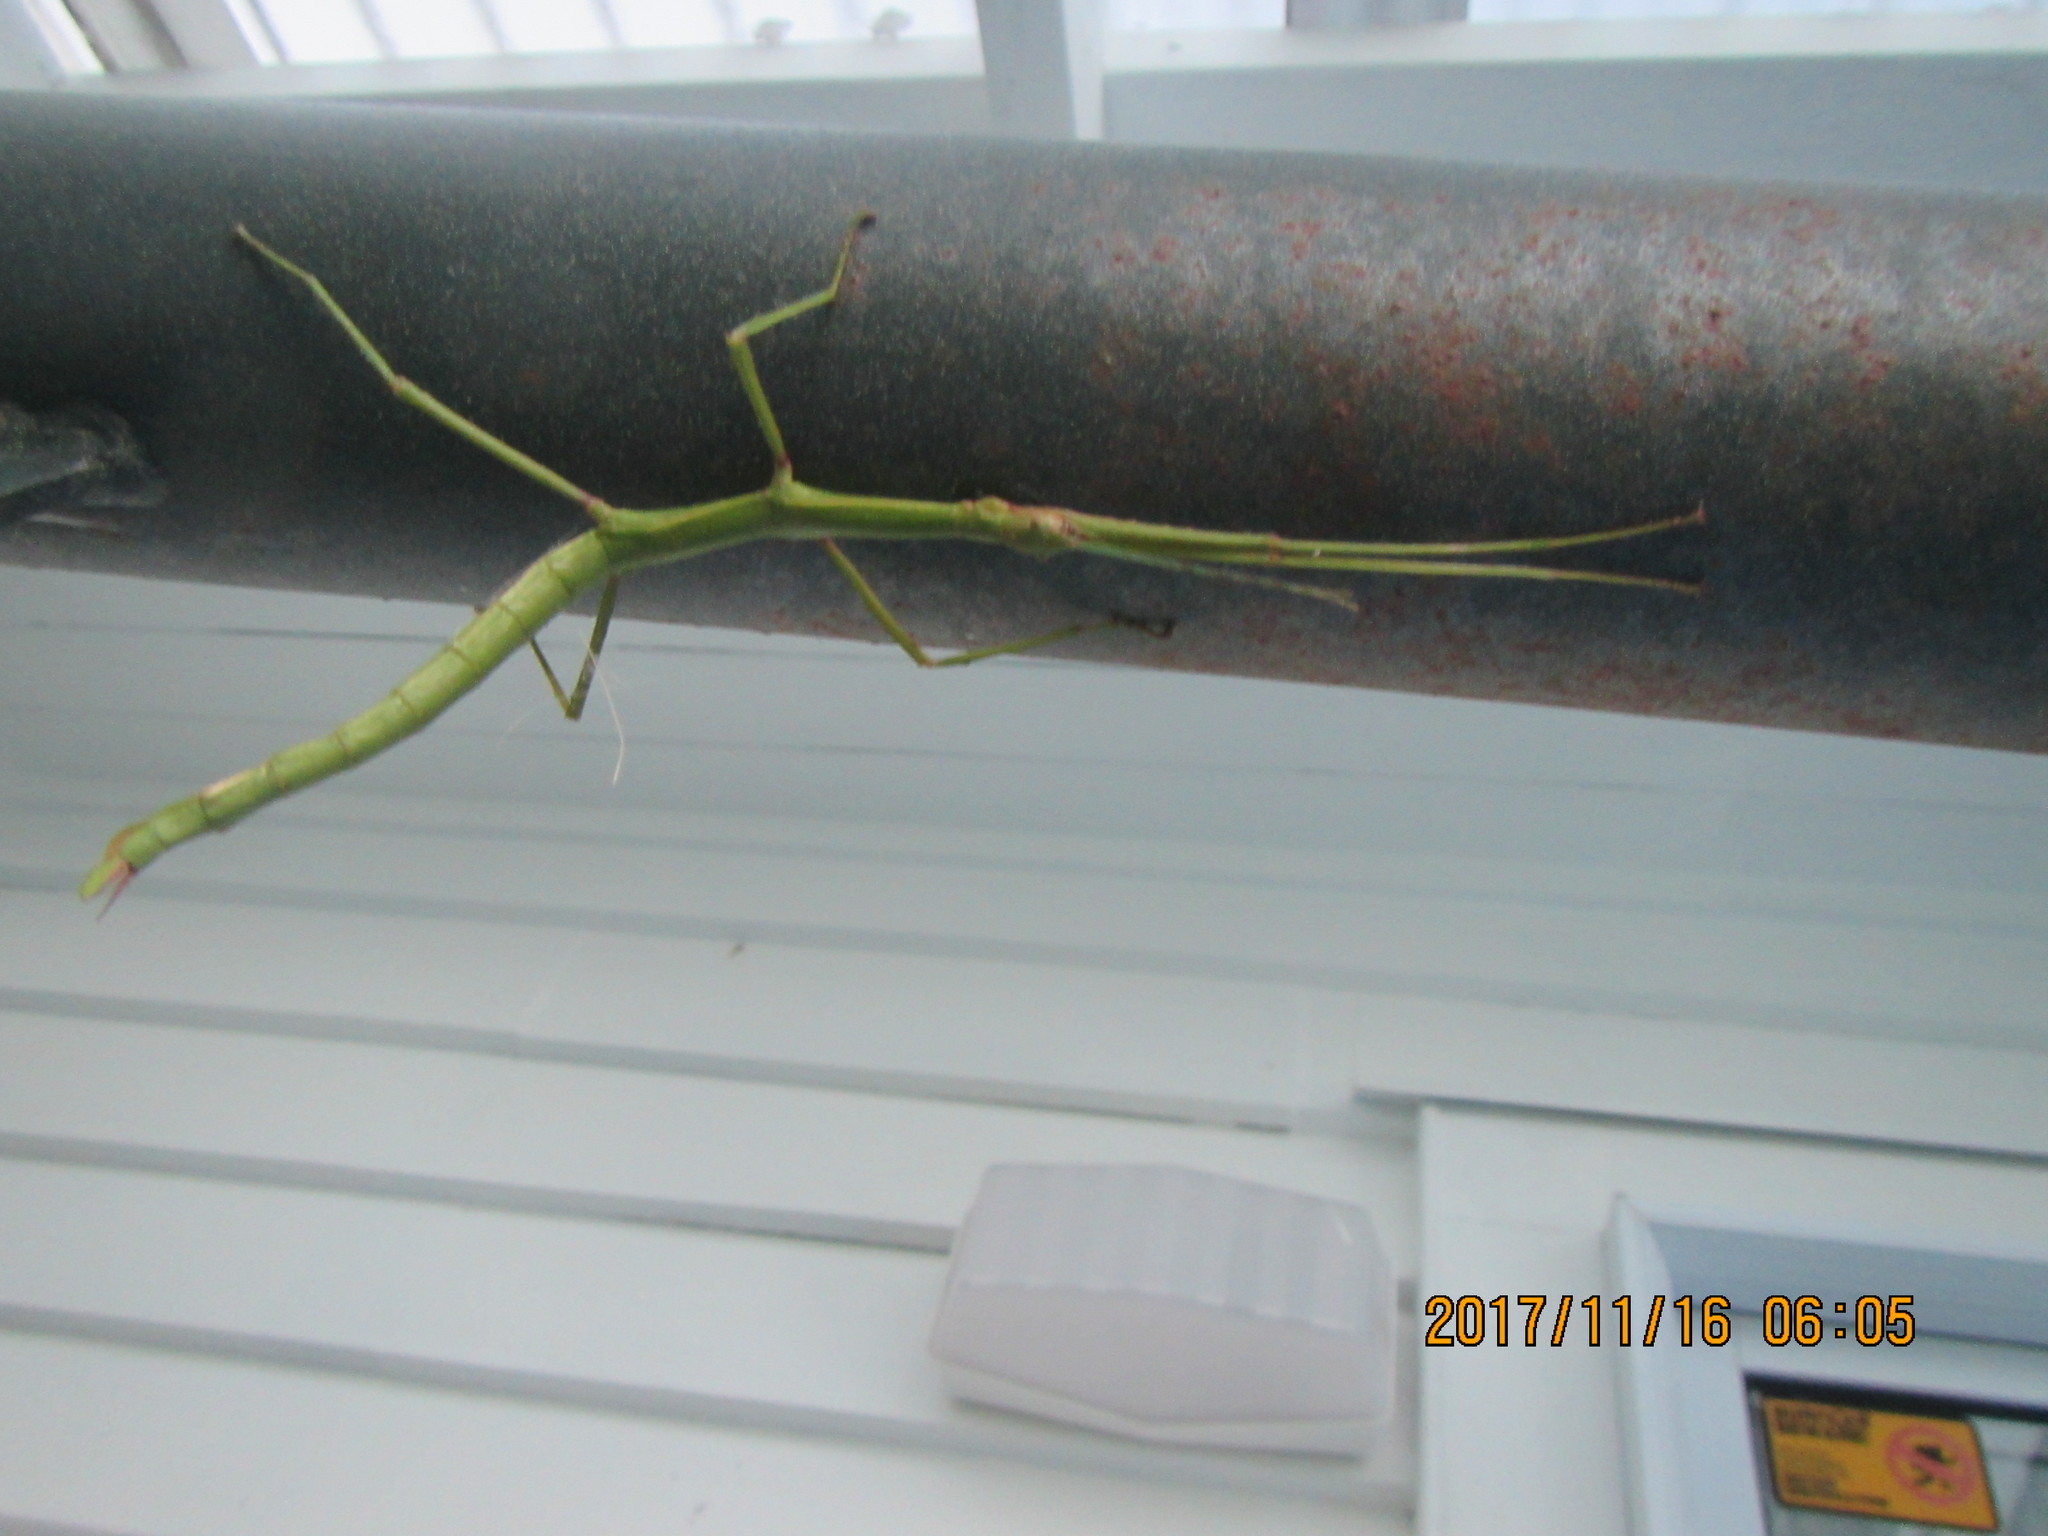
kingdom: Animalia
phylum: Arthropoda
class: Insecta
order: Phasmida
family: Phasmatidae
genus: Clitarchus
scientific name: Clitarchus hookeri
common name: Smooth stick insect
